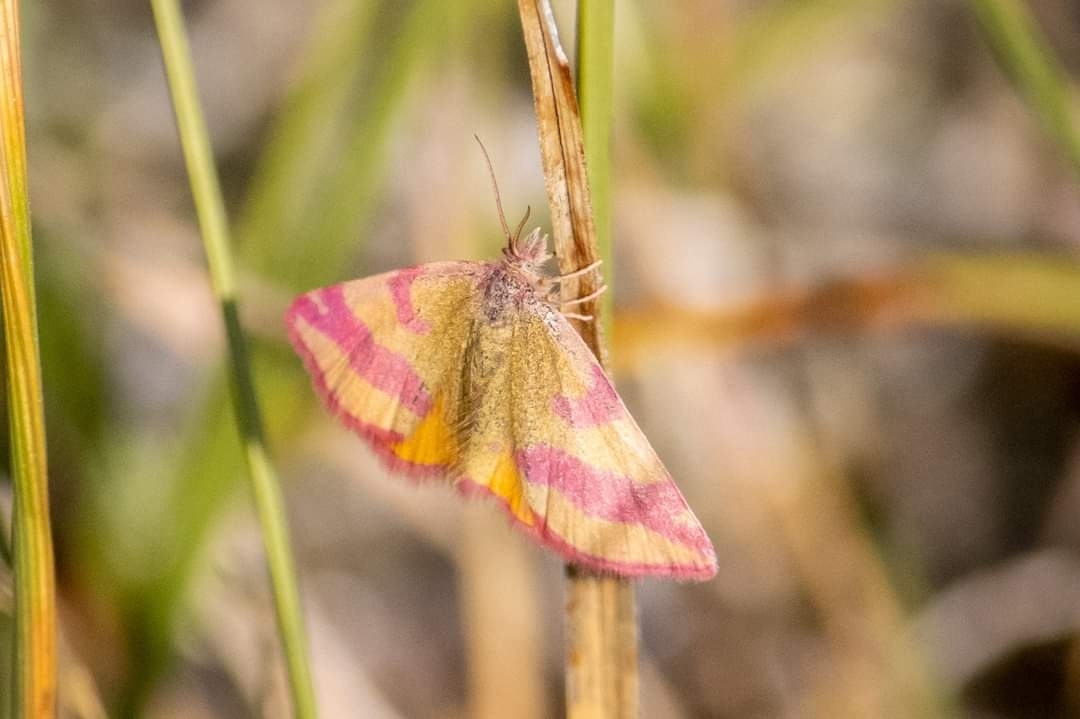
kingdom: Animalia
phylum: Arthropoda
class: Insecta
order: Lepidoptera
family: Geometridae
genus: Lythria
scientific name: Lythria cruentaria
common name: Purple-barred yellow
